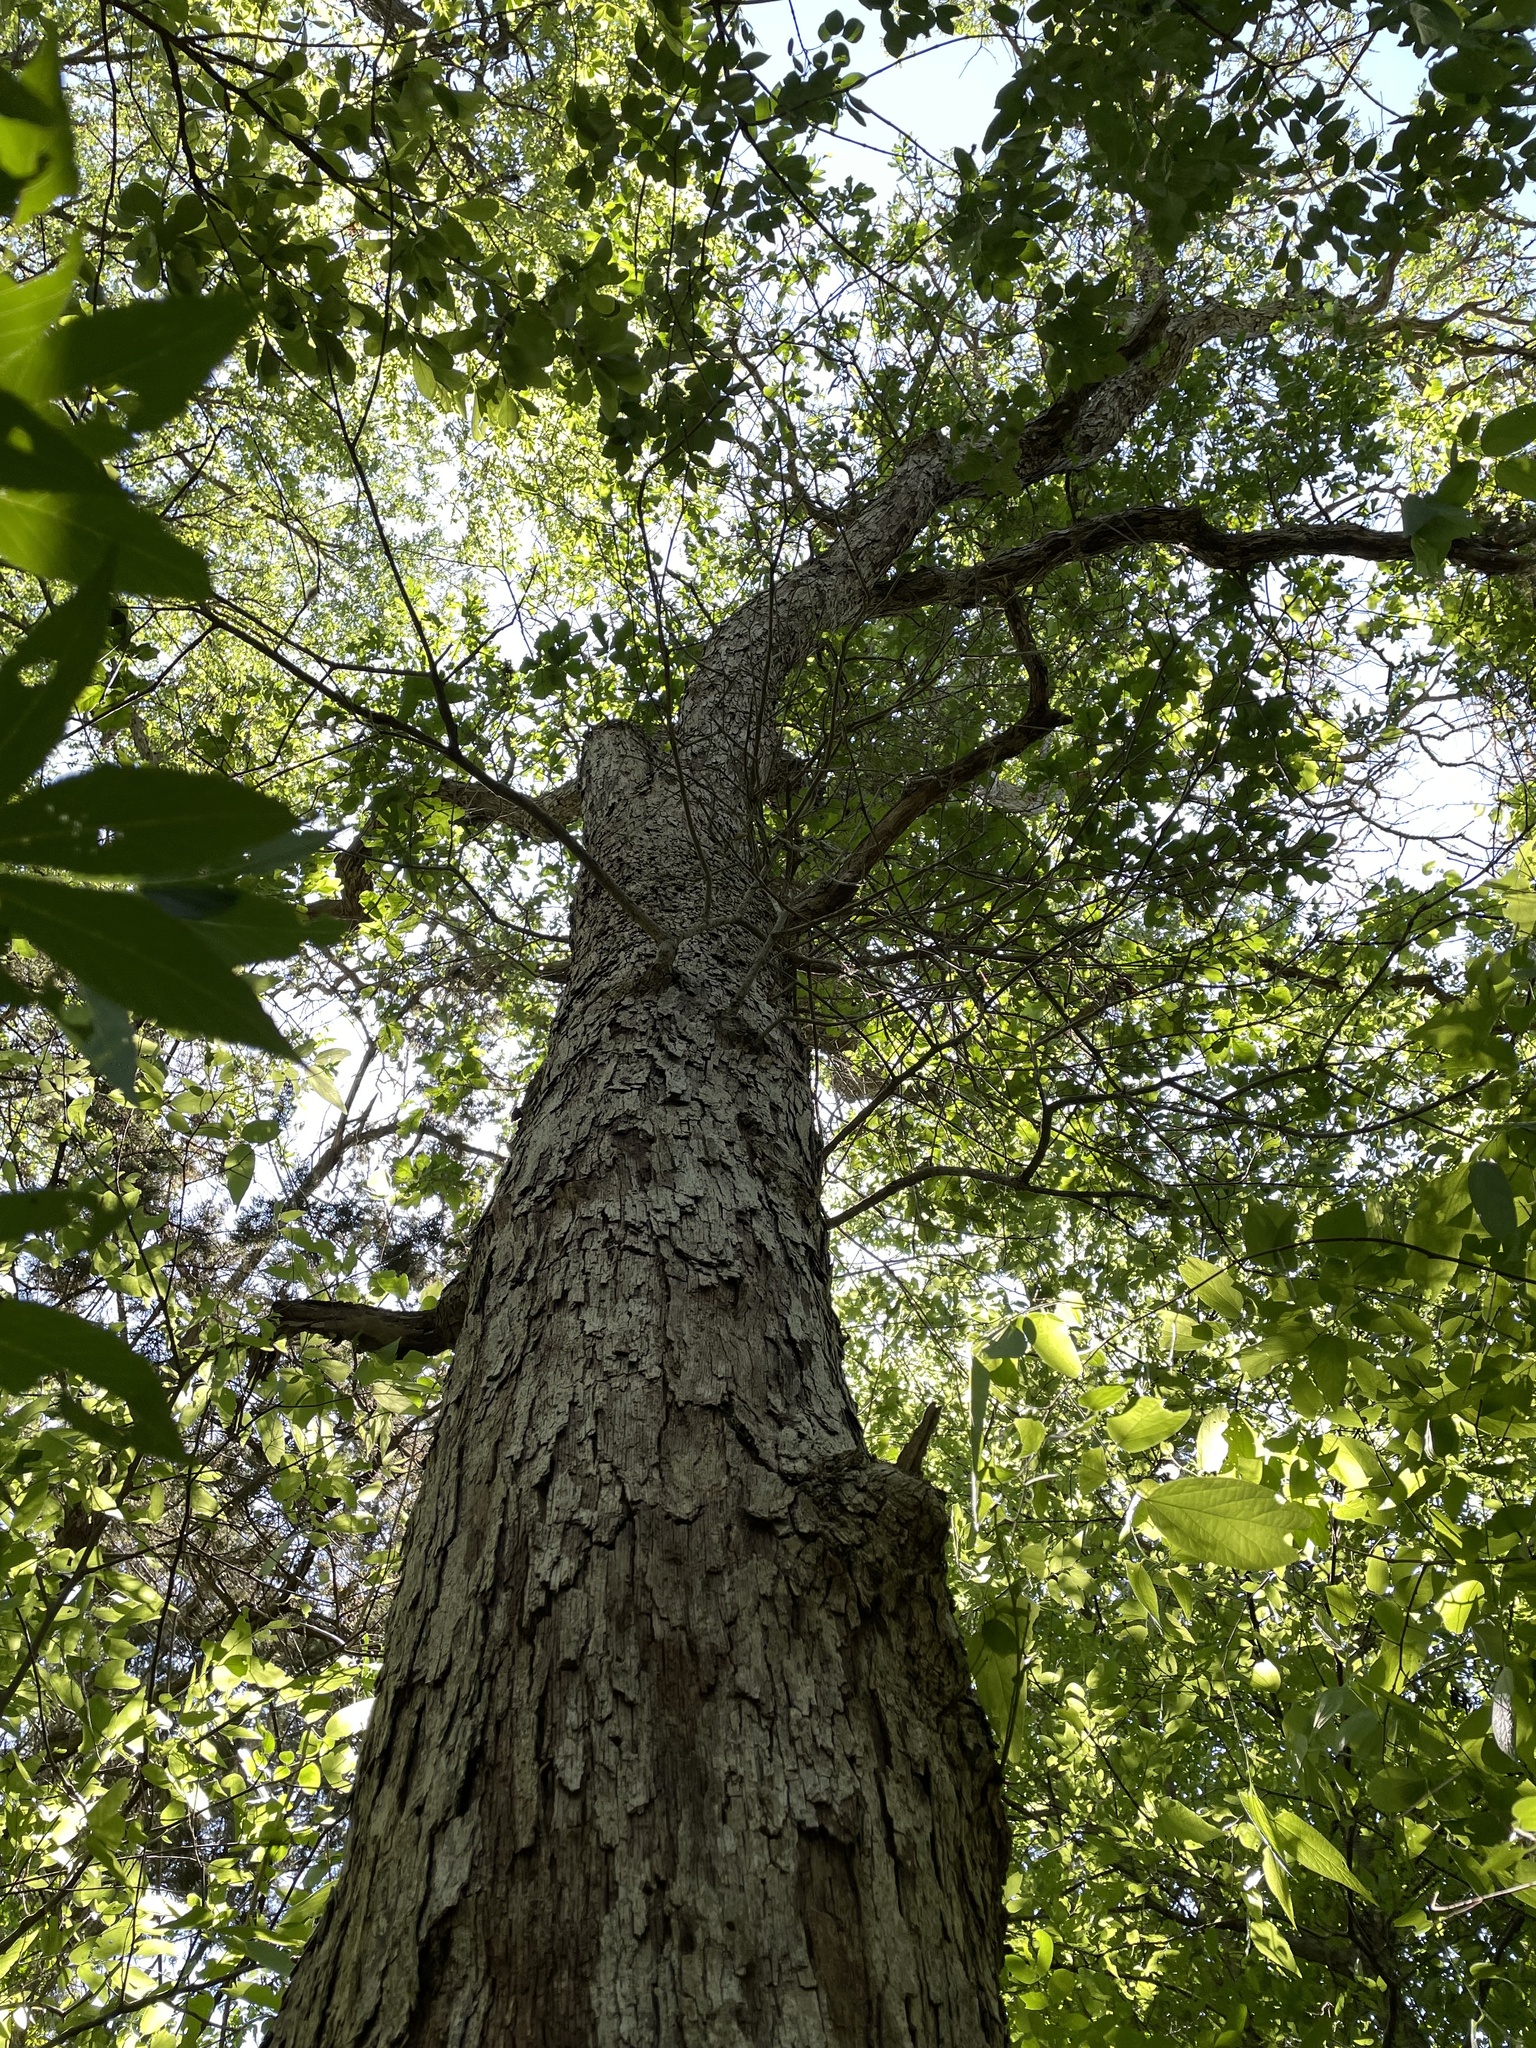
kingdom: Plantae
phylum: Tracheophyta
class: Magnoliopsida
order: Fagales
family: Fagaceae
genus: Quercus
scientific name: Quercus sinuata
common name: Durand oak
